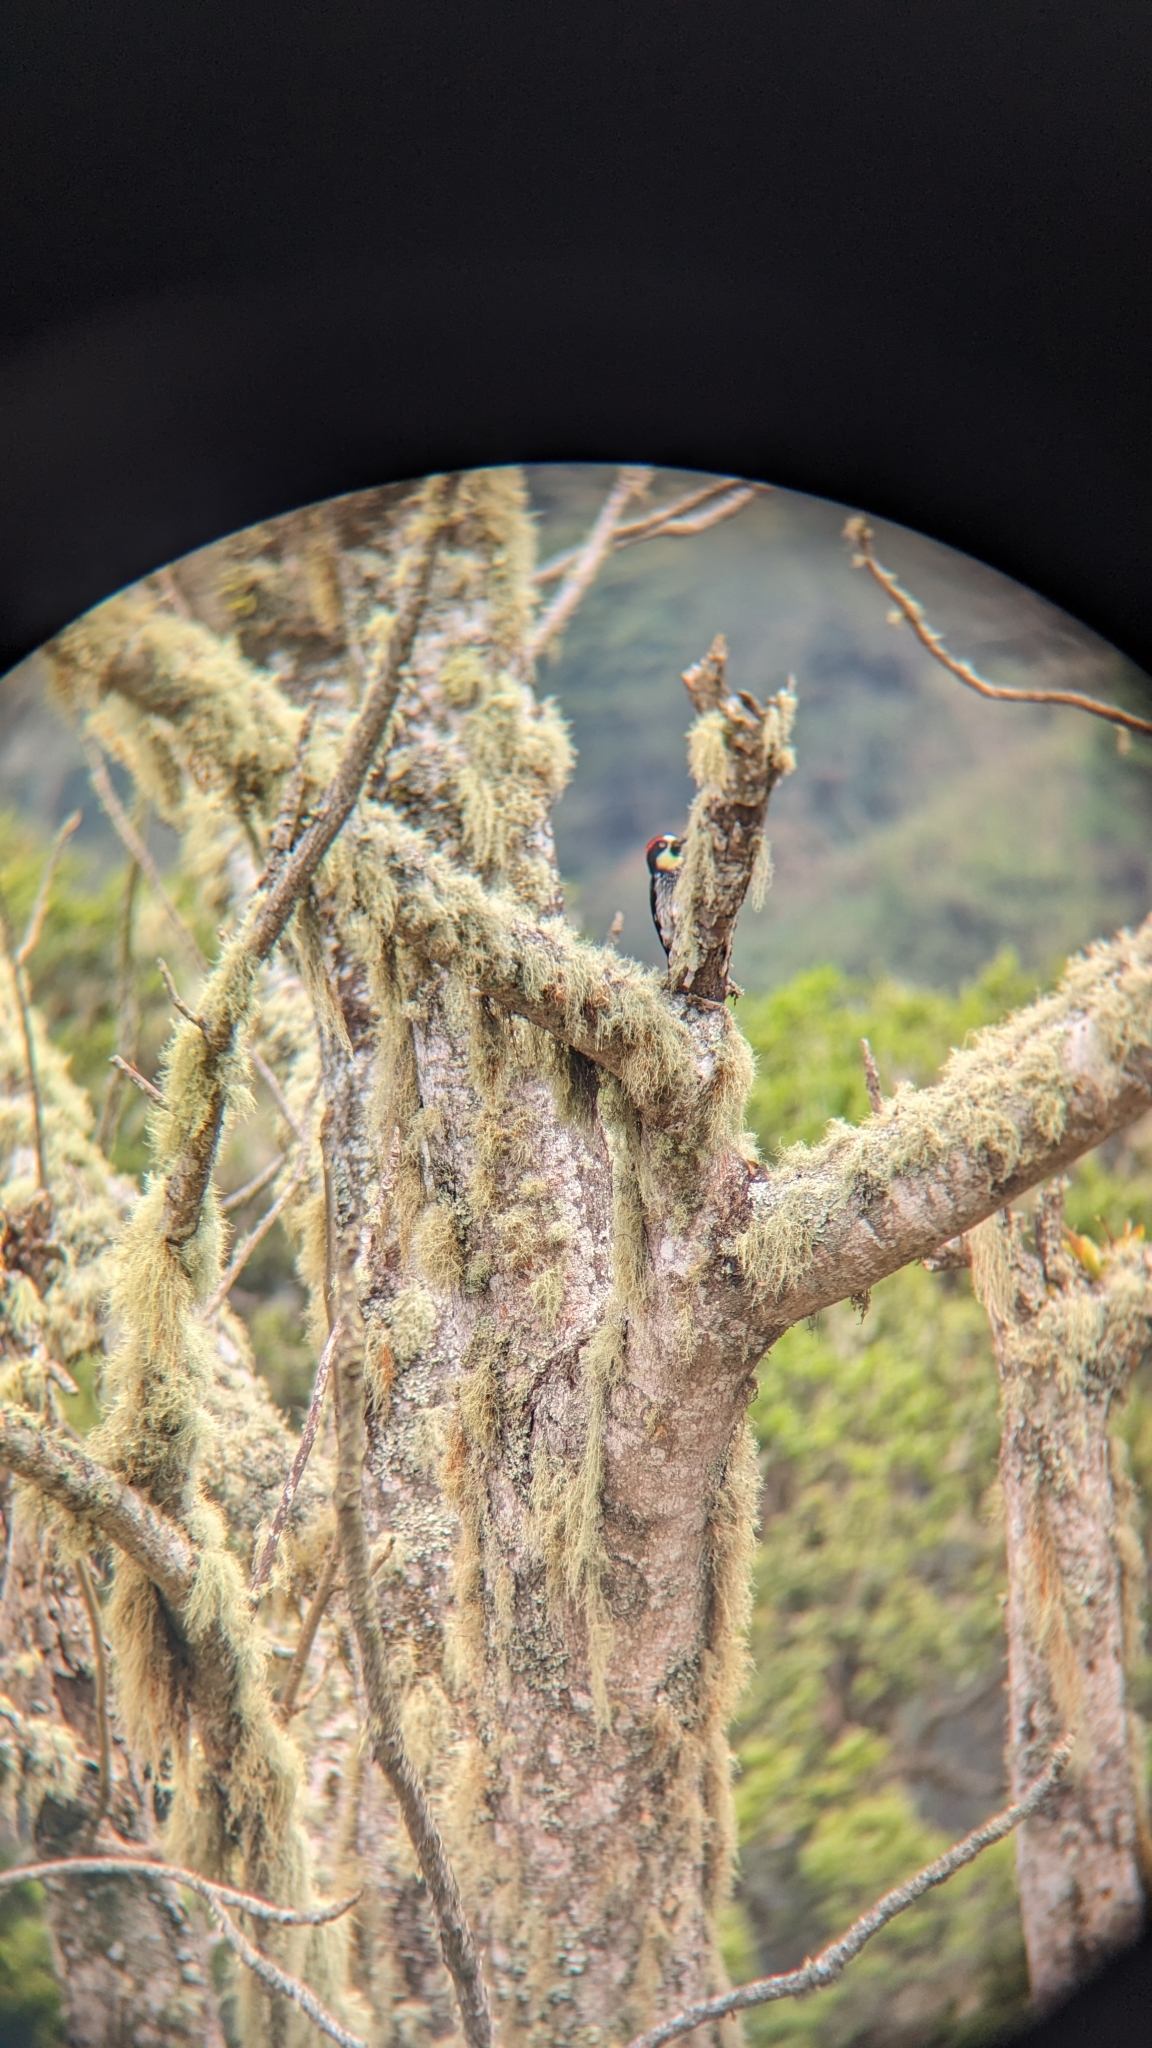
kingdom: Animalia
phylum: Chordata
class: Aves
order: Piciformes
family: Picidae
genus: Melanerpes
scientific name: Melanerpes formicivorus
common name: Acorn woodpecker
